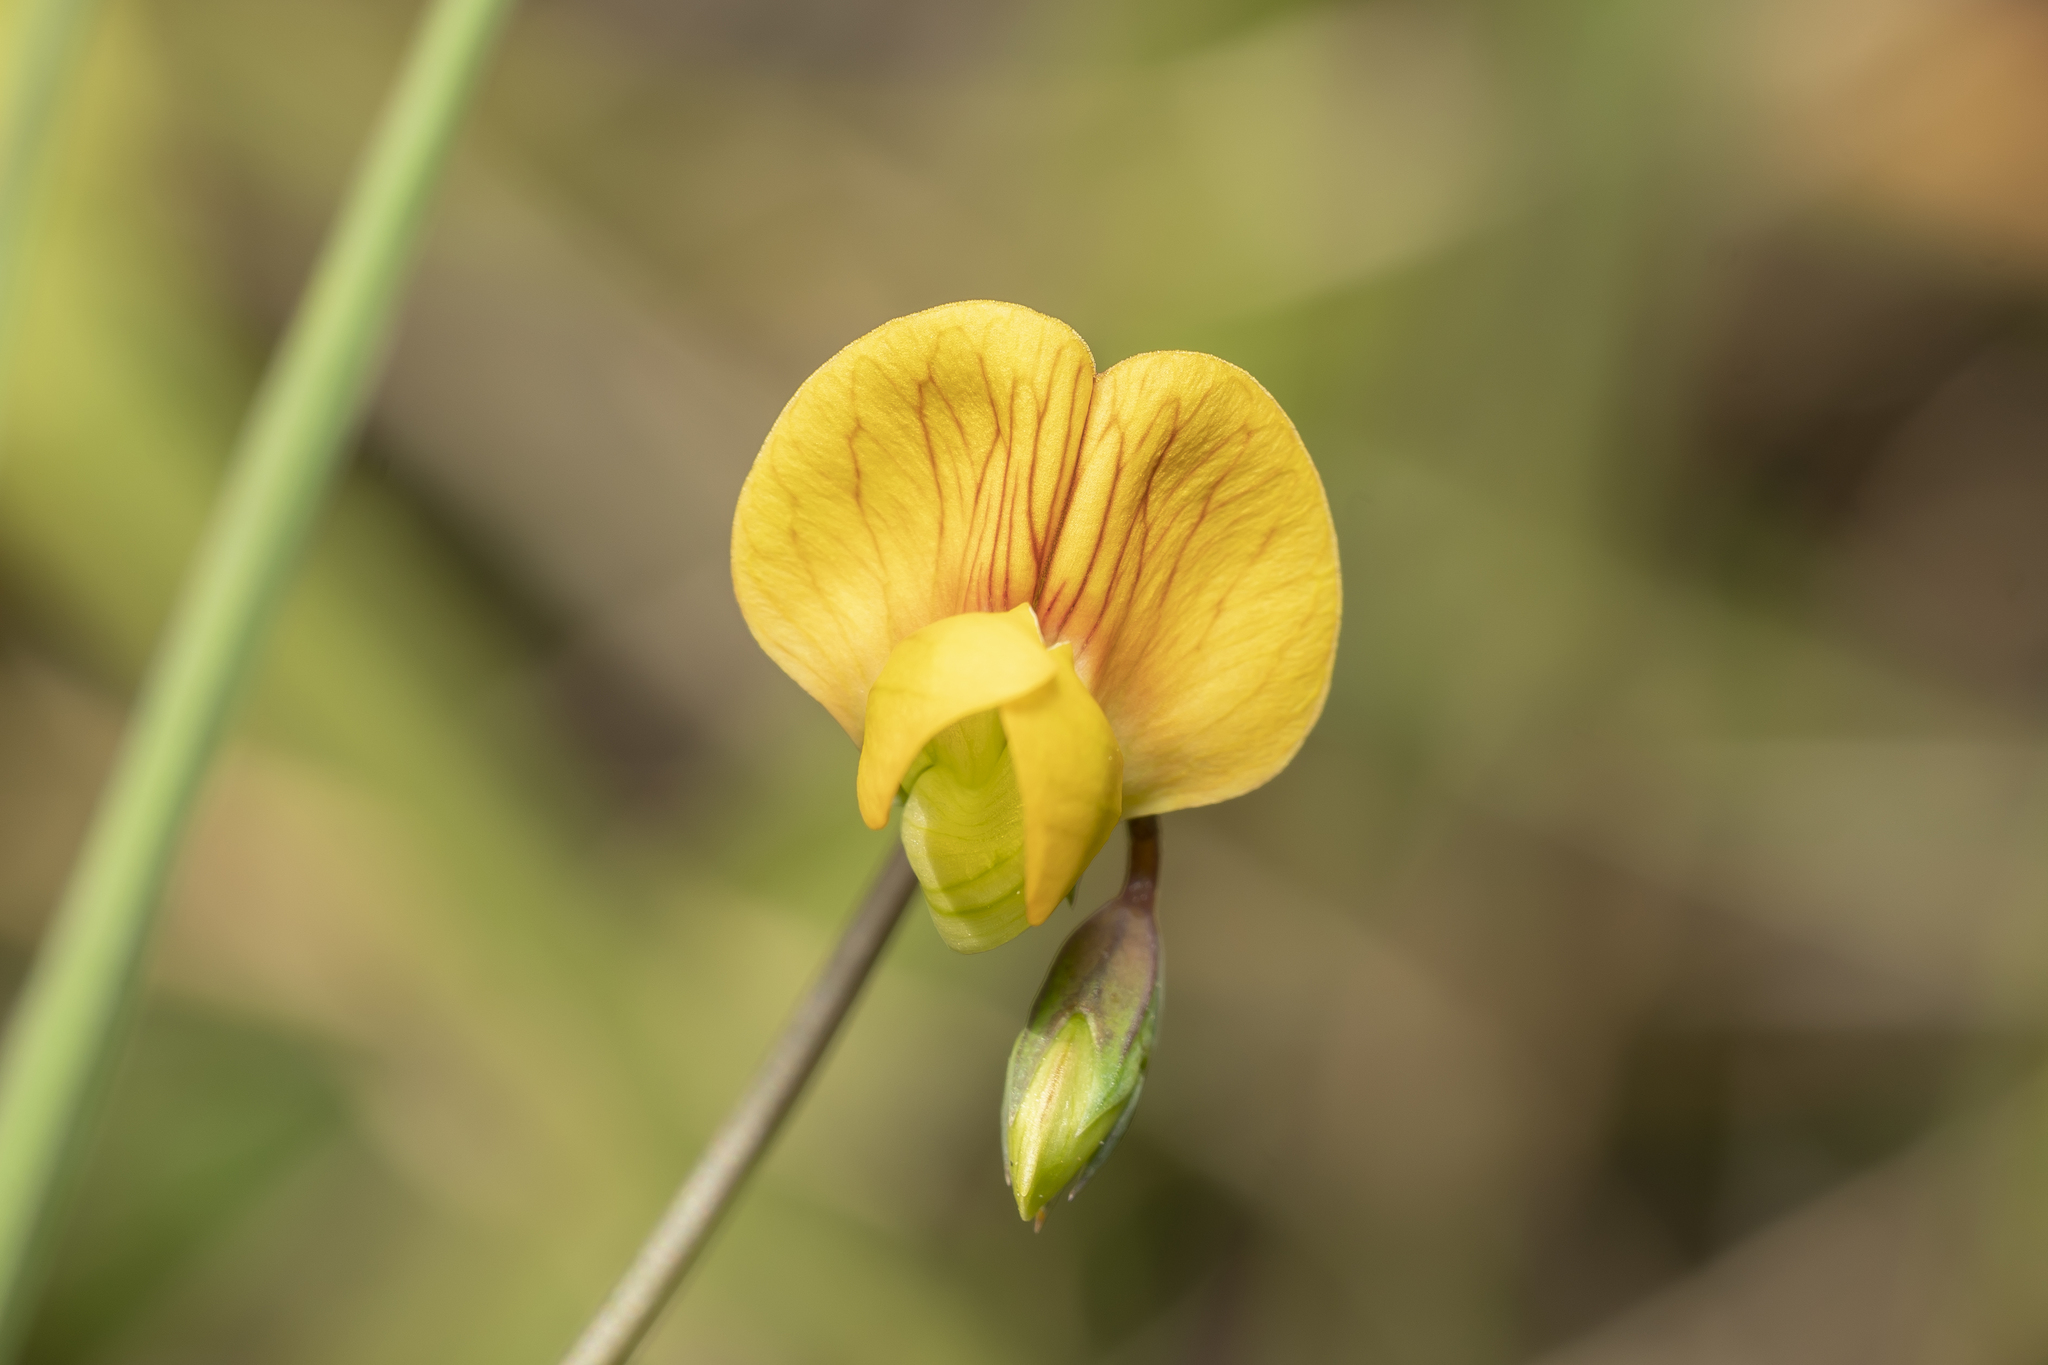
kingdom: Plantae
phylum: Tracheophyta
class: Magnoliopsida
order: Fabales
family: Fabaceae
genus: Lathyrus
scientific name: Lathyrus annuus
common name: Fodder pea
